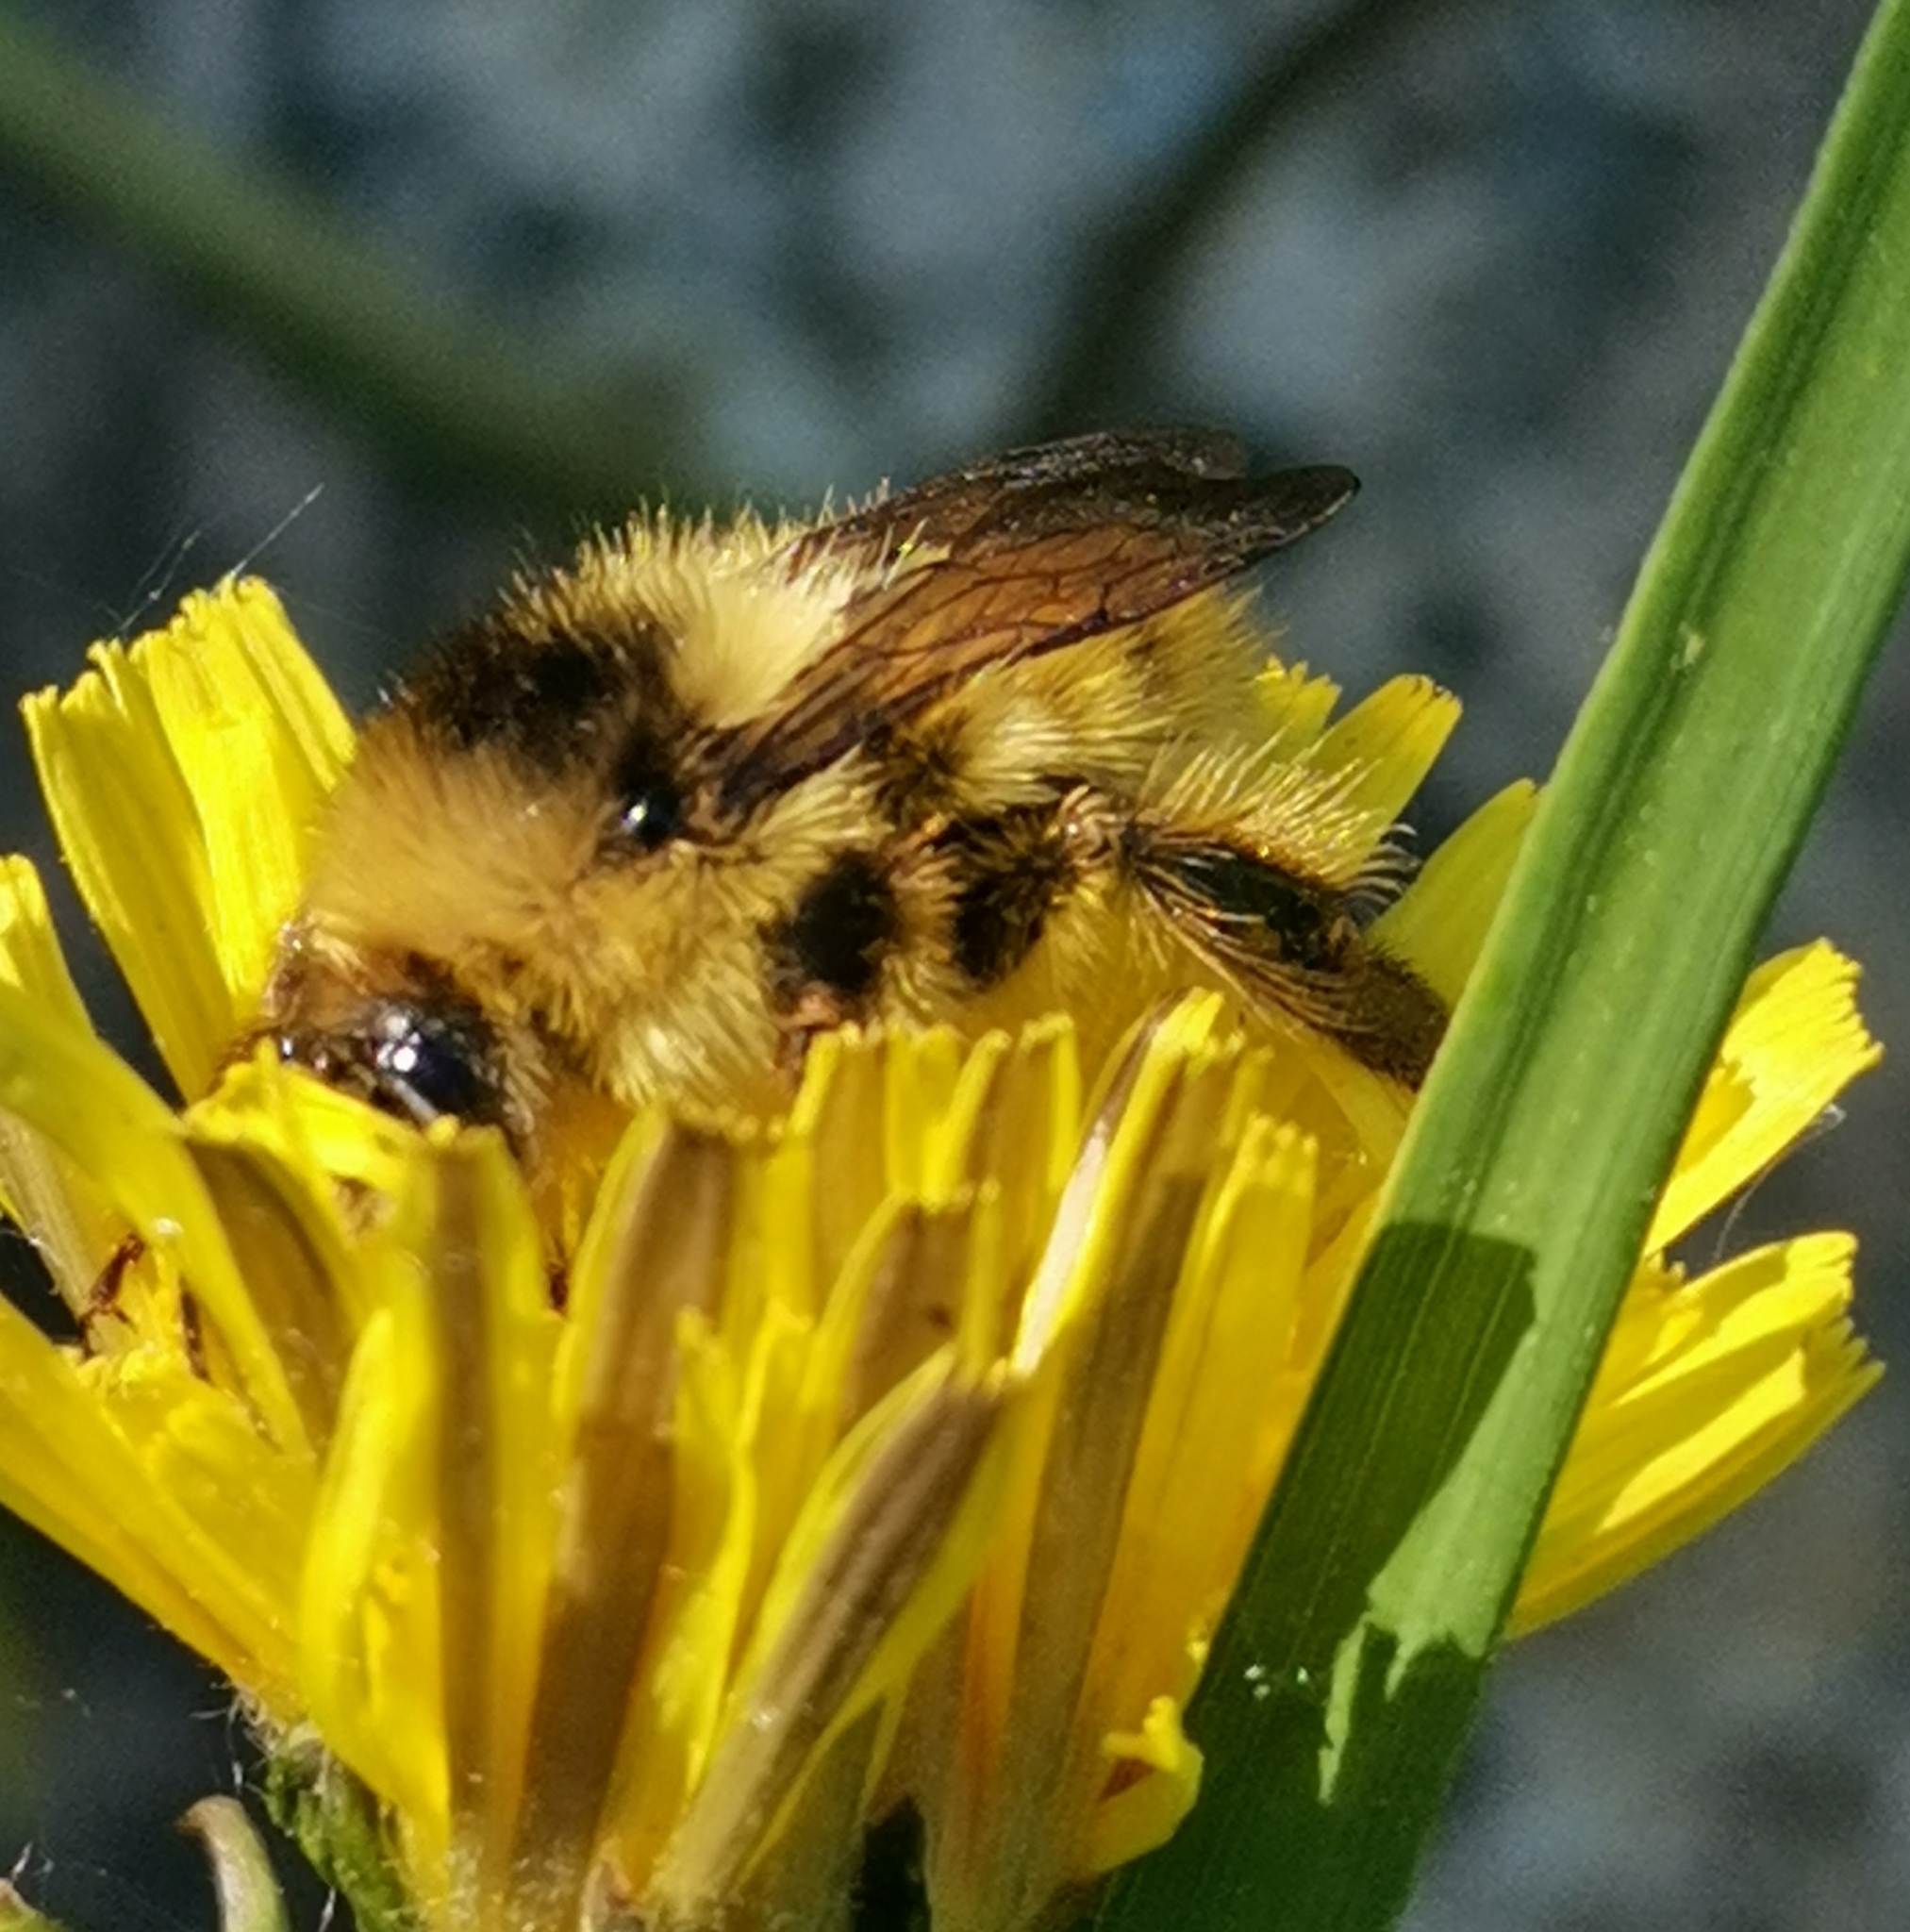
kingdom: Animalia
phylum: Arthropoda
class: Insecta
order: Hymenoptera
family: Apidae
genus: Bombus
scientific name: Bombus veteranus
